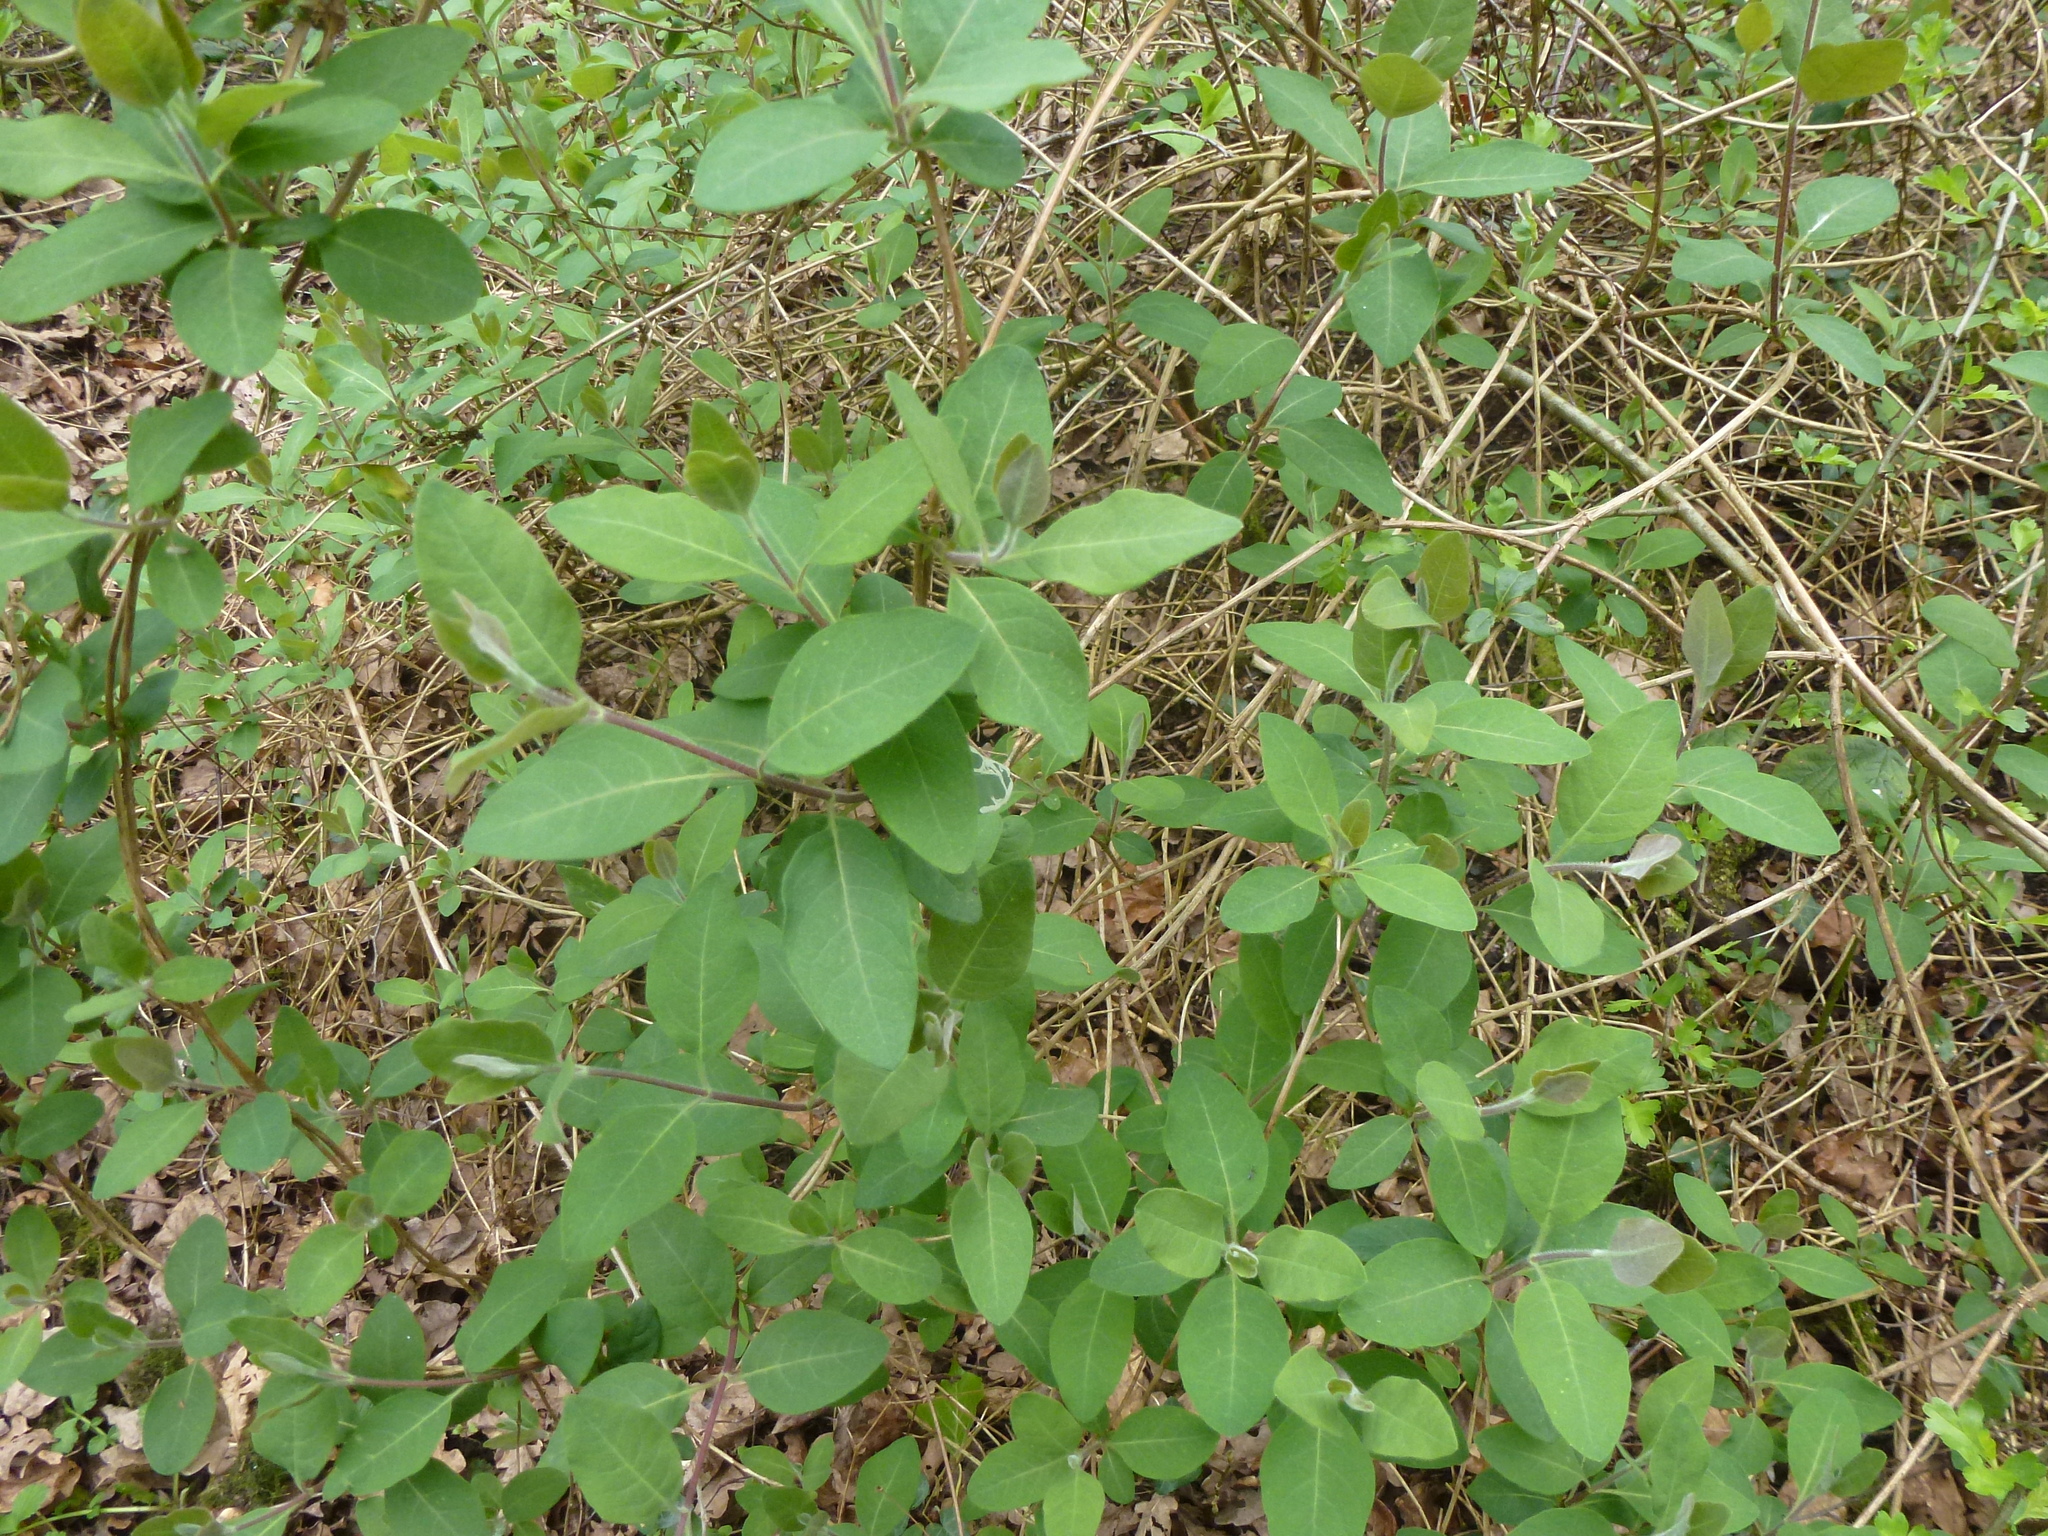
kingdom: Plantae
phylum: Tracheophyta
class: Magnoliopsida
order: Dipsacales
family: Caprifoliaceae
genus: Lonicera
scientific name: Lonicera periclymenum
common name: European honeysuckle
